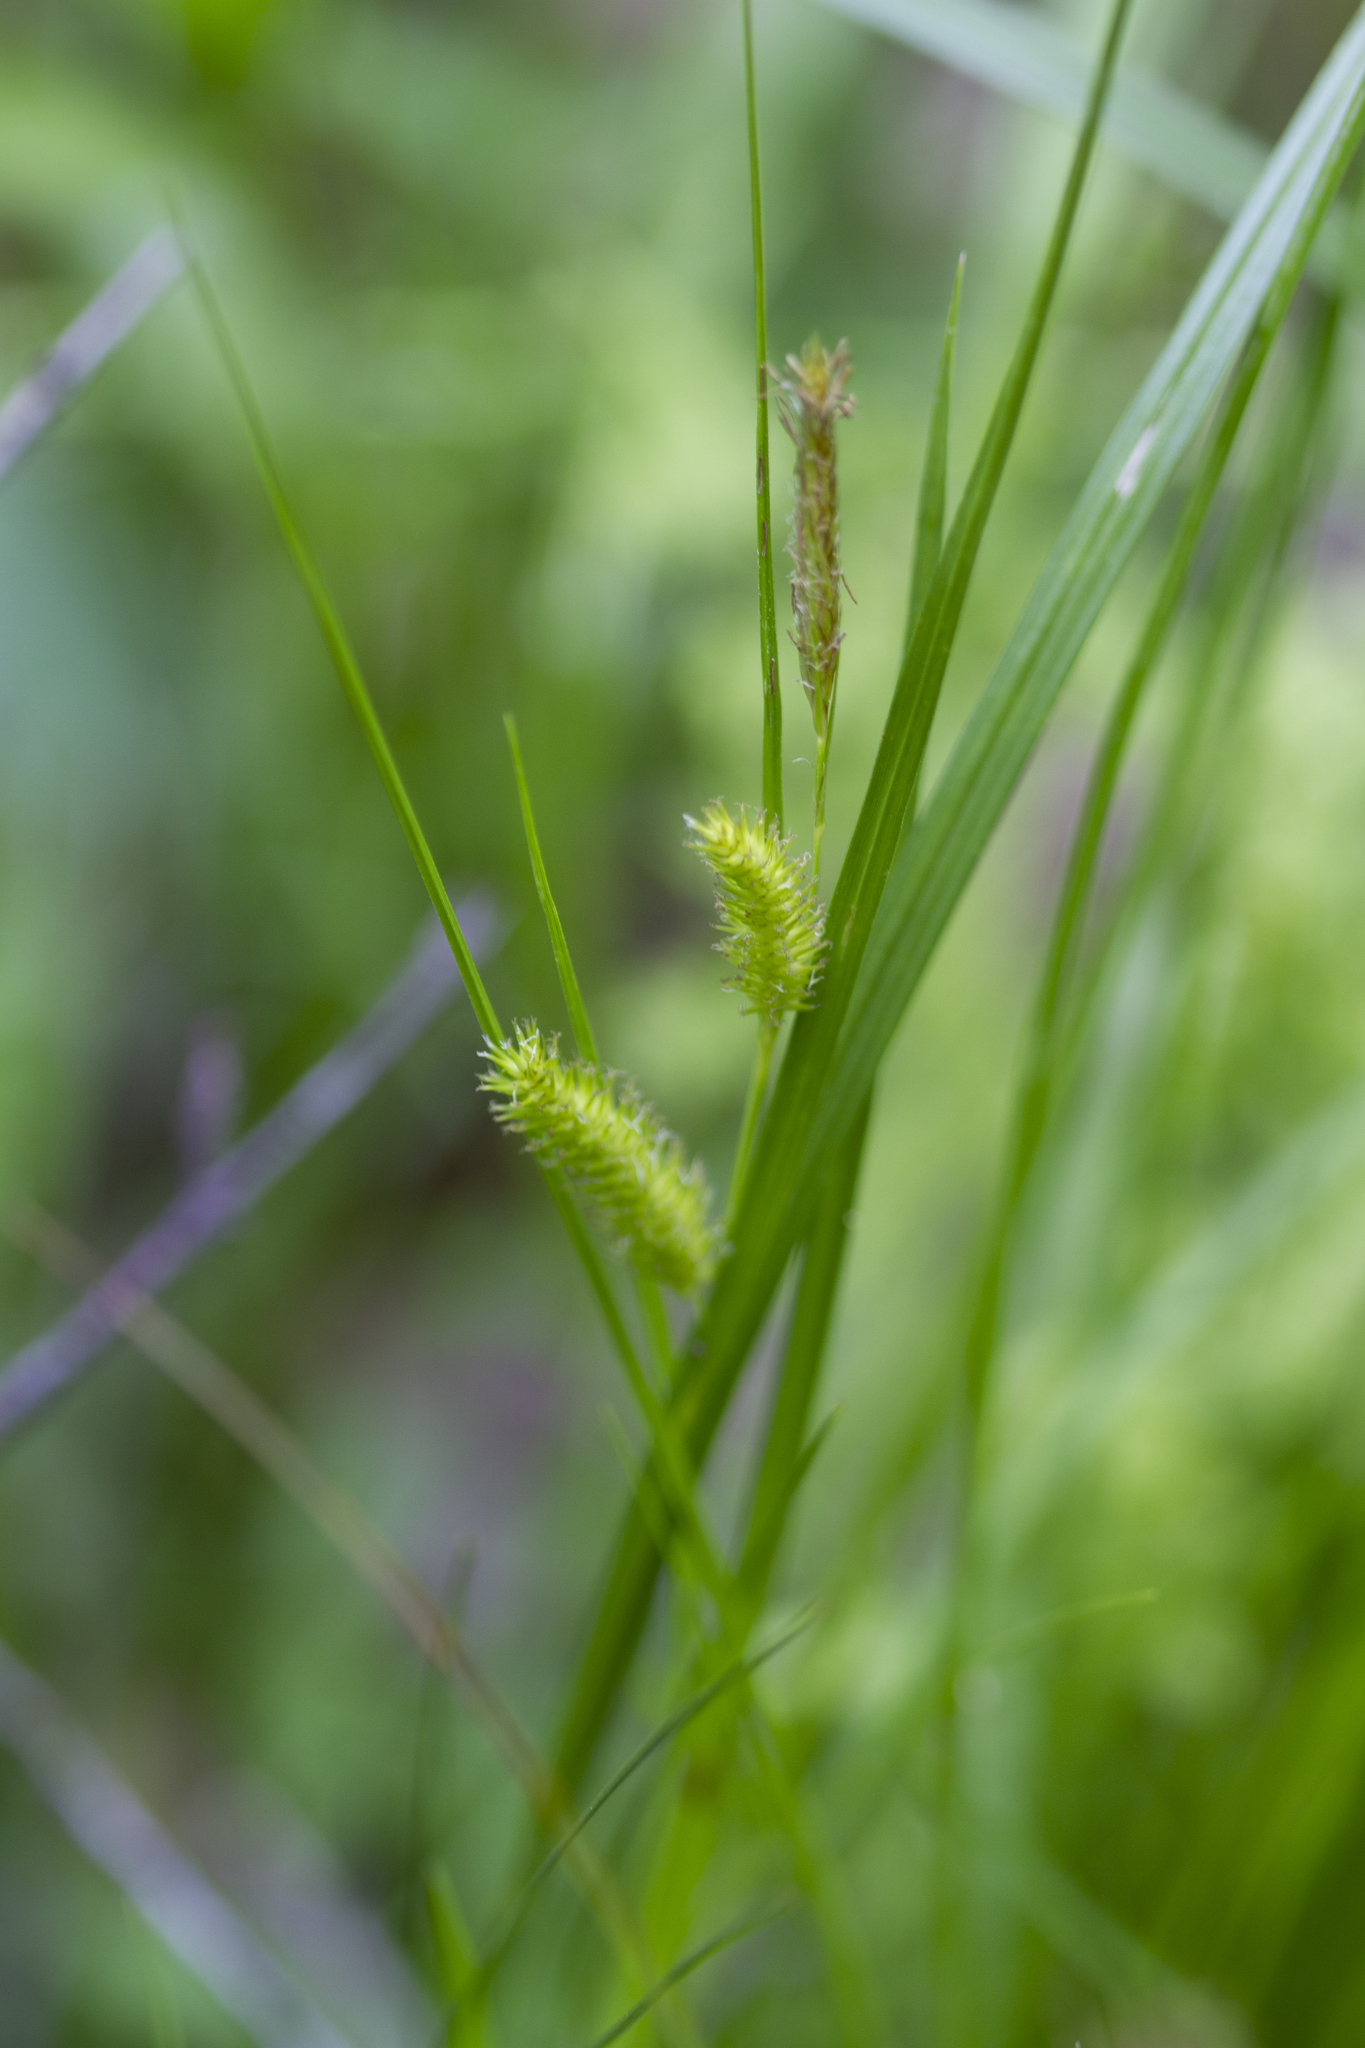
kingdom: Plantae
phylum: Tracheophyta
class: Liliopsida
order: Poales
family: Cyperaceae
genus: Carex
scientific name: Carex hystericina
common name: Bottlebrush sedge
